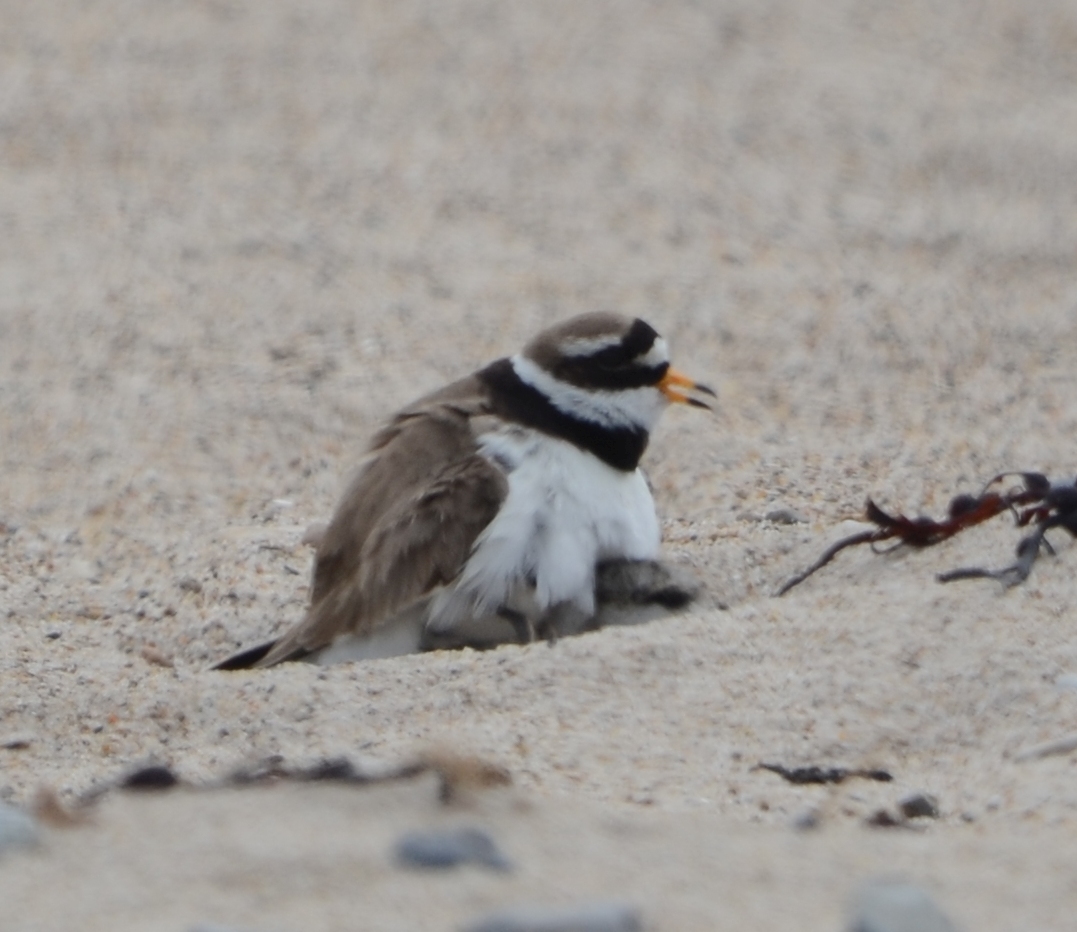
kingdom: Animalia
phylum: Chordata
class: Aves
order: Charadriiformes
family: Charadriidae
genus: Charadrius
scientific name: Charadrius hiaticula
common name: Common ringed plover
